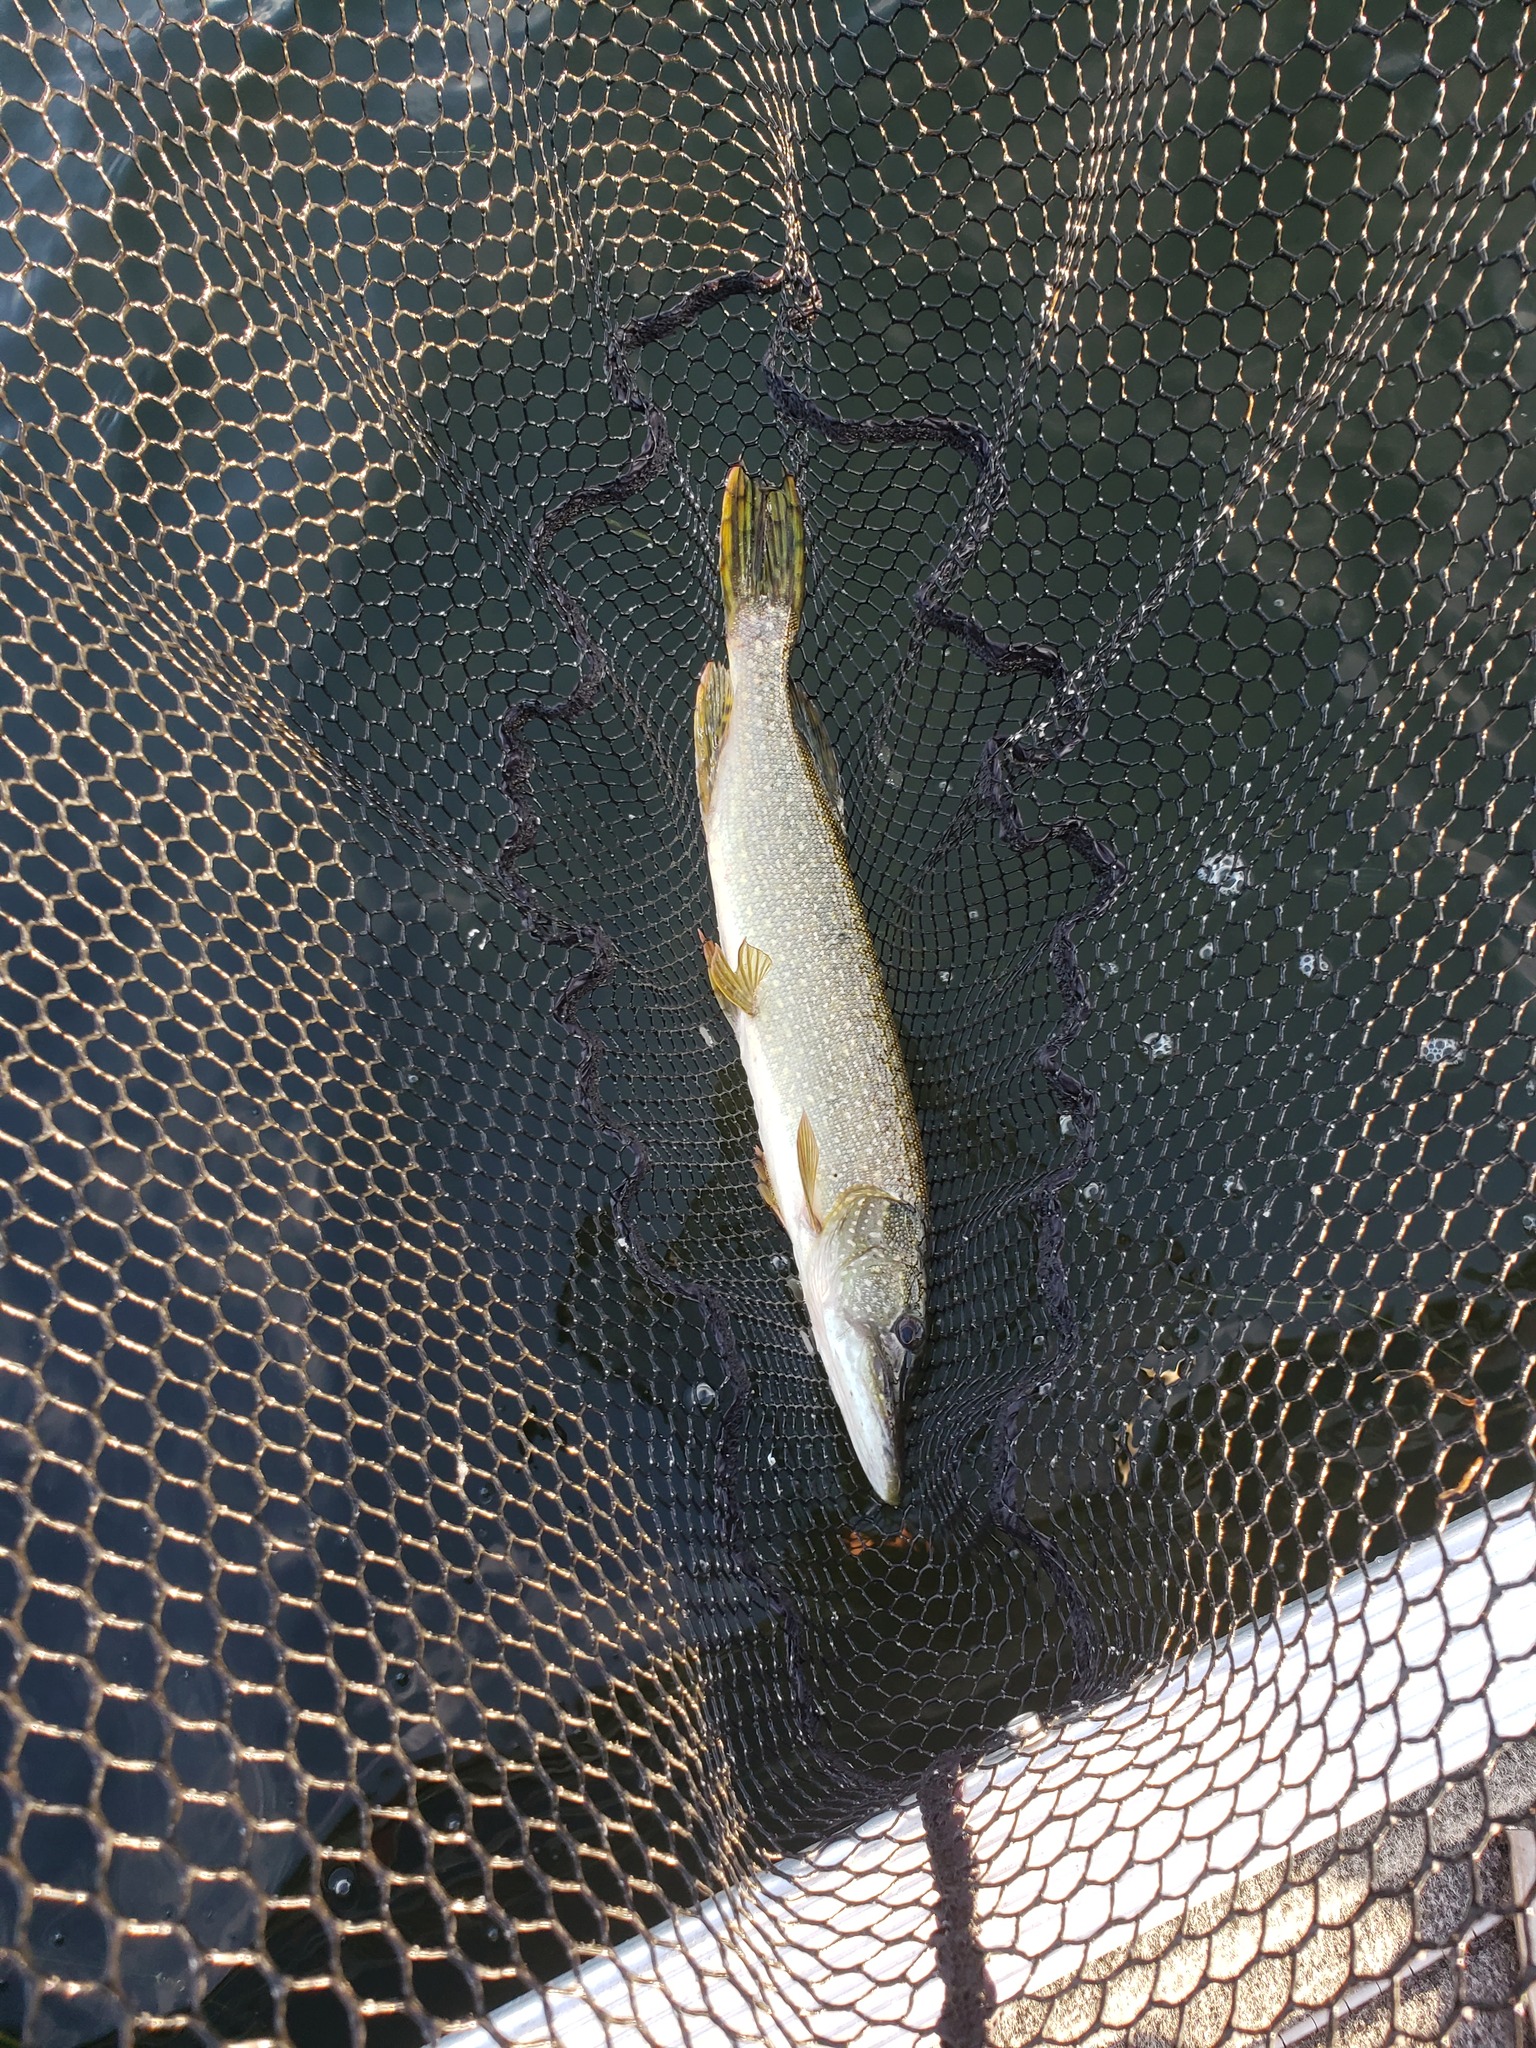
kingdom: Animalia
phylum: Chordata
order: Esociformes
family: Esocidae
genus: Esox
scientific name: Esox lucius
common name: Northern pike
